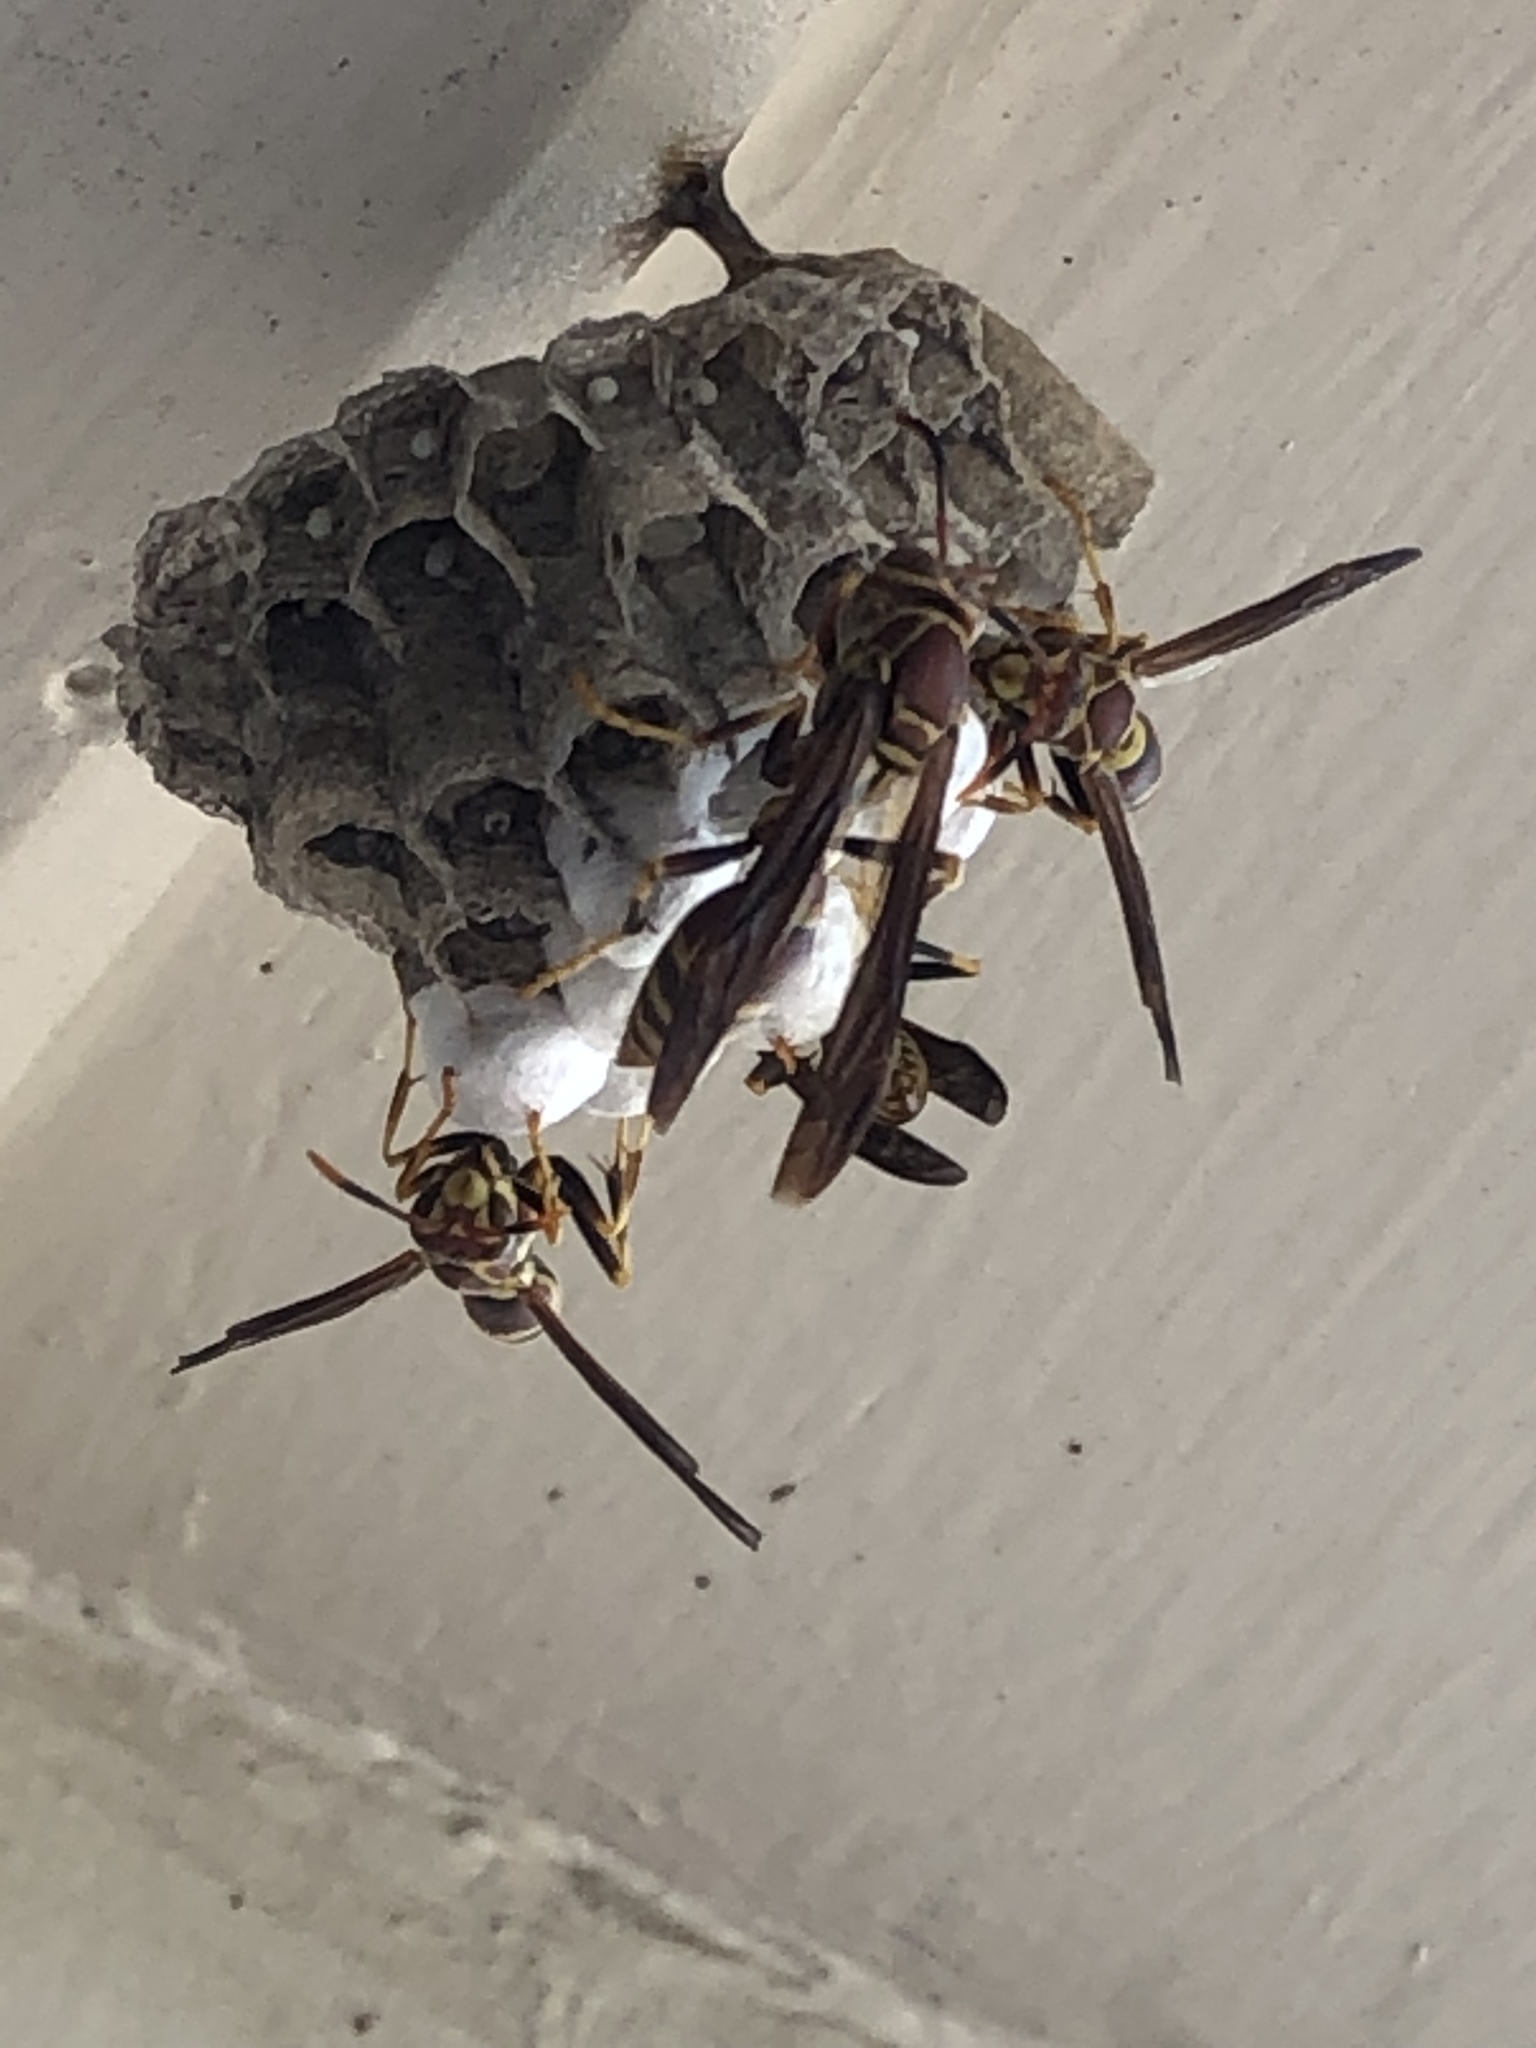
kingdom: Animalia
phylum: Arthropoda
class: Insecta
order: Hymenoptera
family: Eumenidae
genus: Polistes
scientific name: Polistes exclamans
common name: Paper wasp
